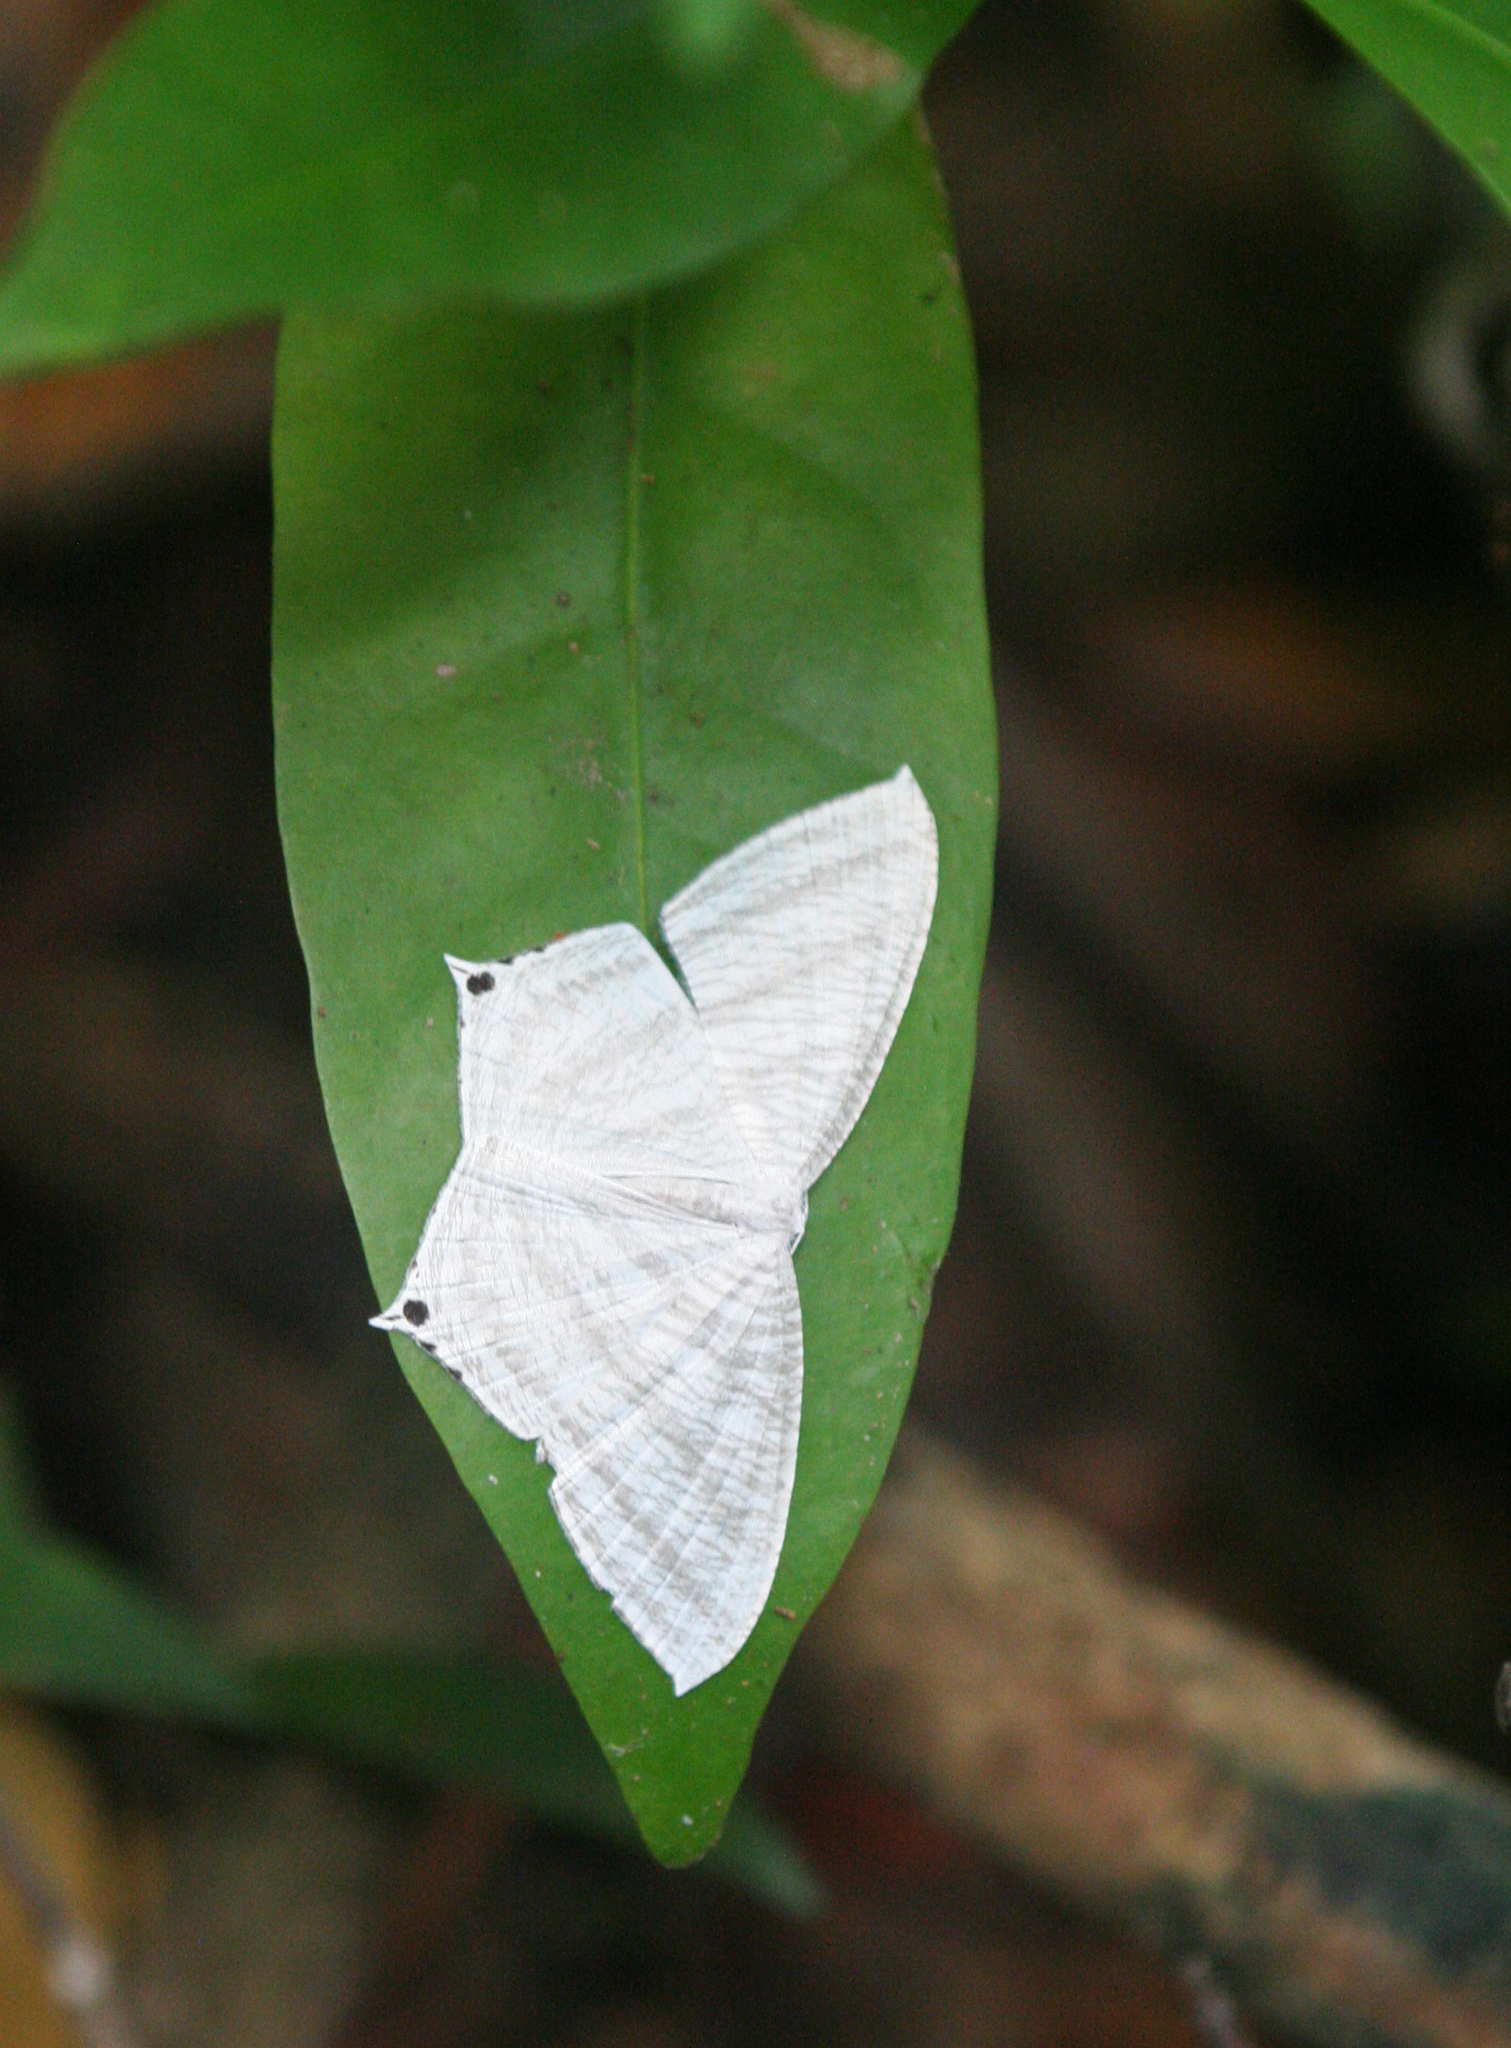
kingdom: Animalia
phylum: Arthropoda
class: Insecta
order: Lepidoptera
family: Uraniidae
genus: Micronia
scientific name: Micronia aculeata
